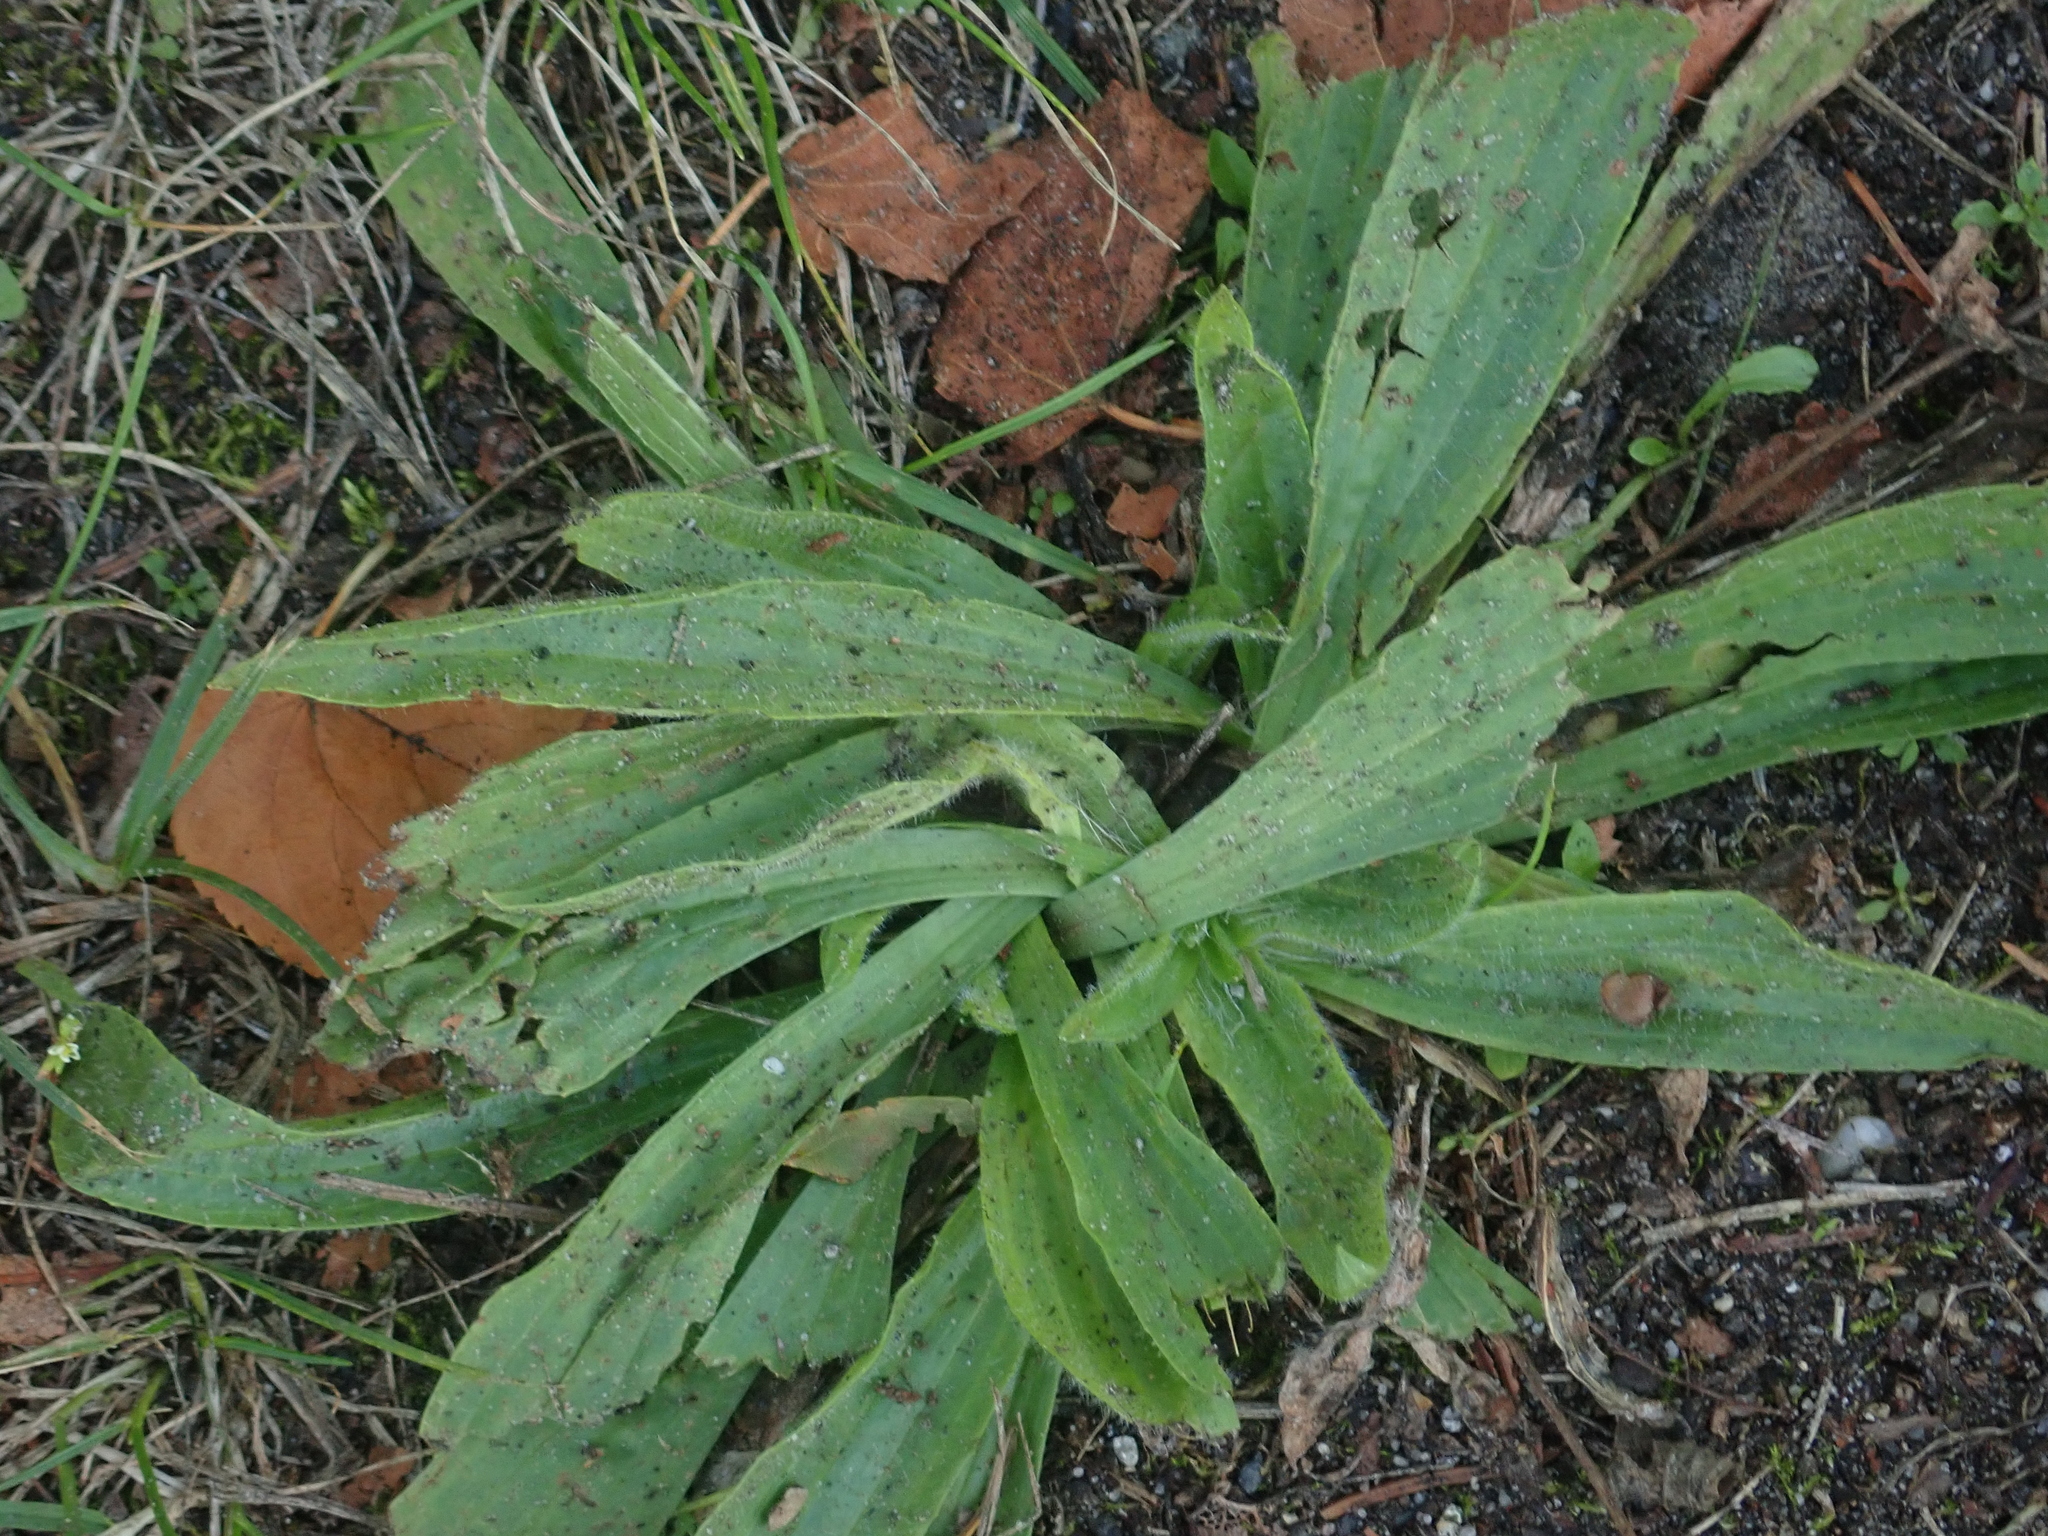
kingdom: Plantae
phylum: Tracheophyta
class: Magnoliopsida
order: Lamiales
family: Plantaginaceae
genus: Plantago
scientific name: Plantago lanceolata
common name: Ribwort plantain
